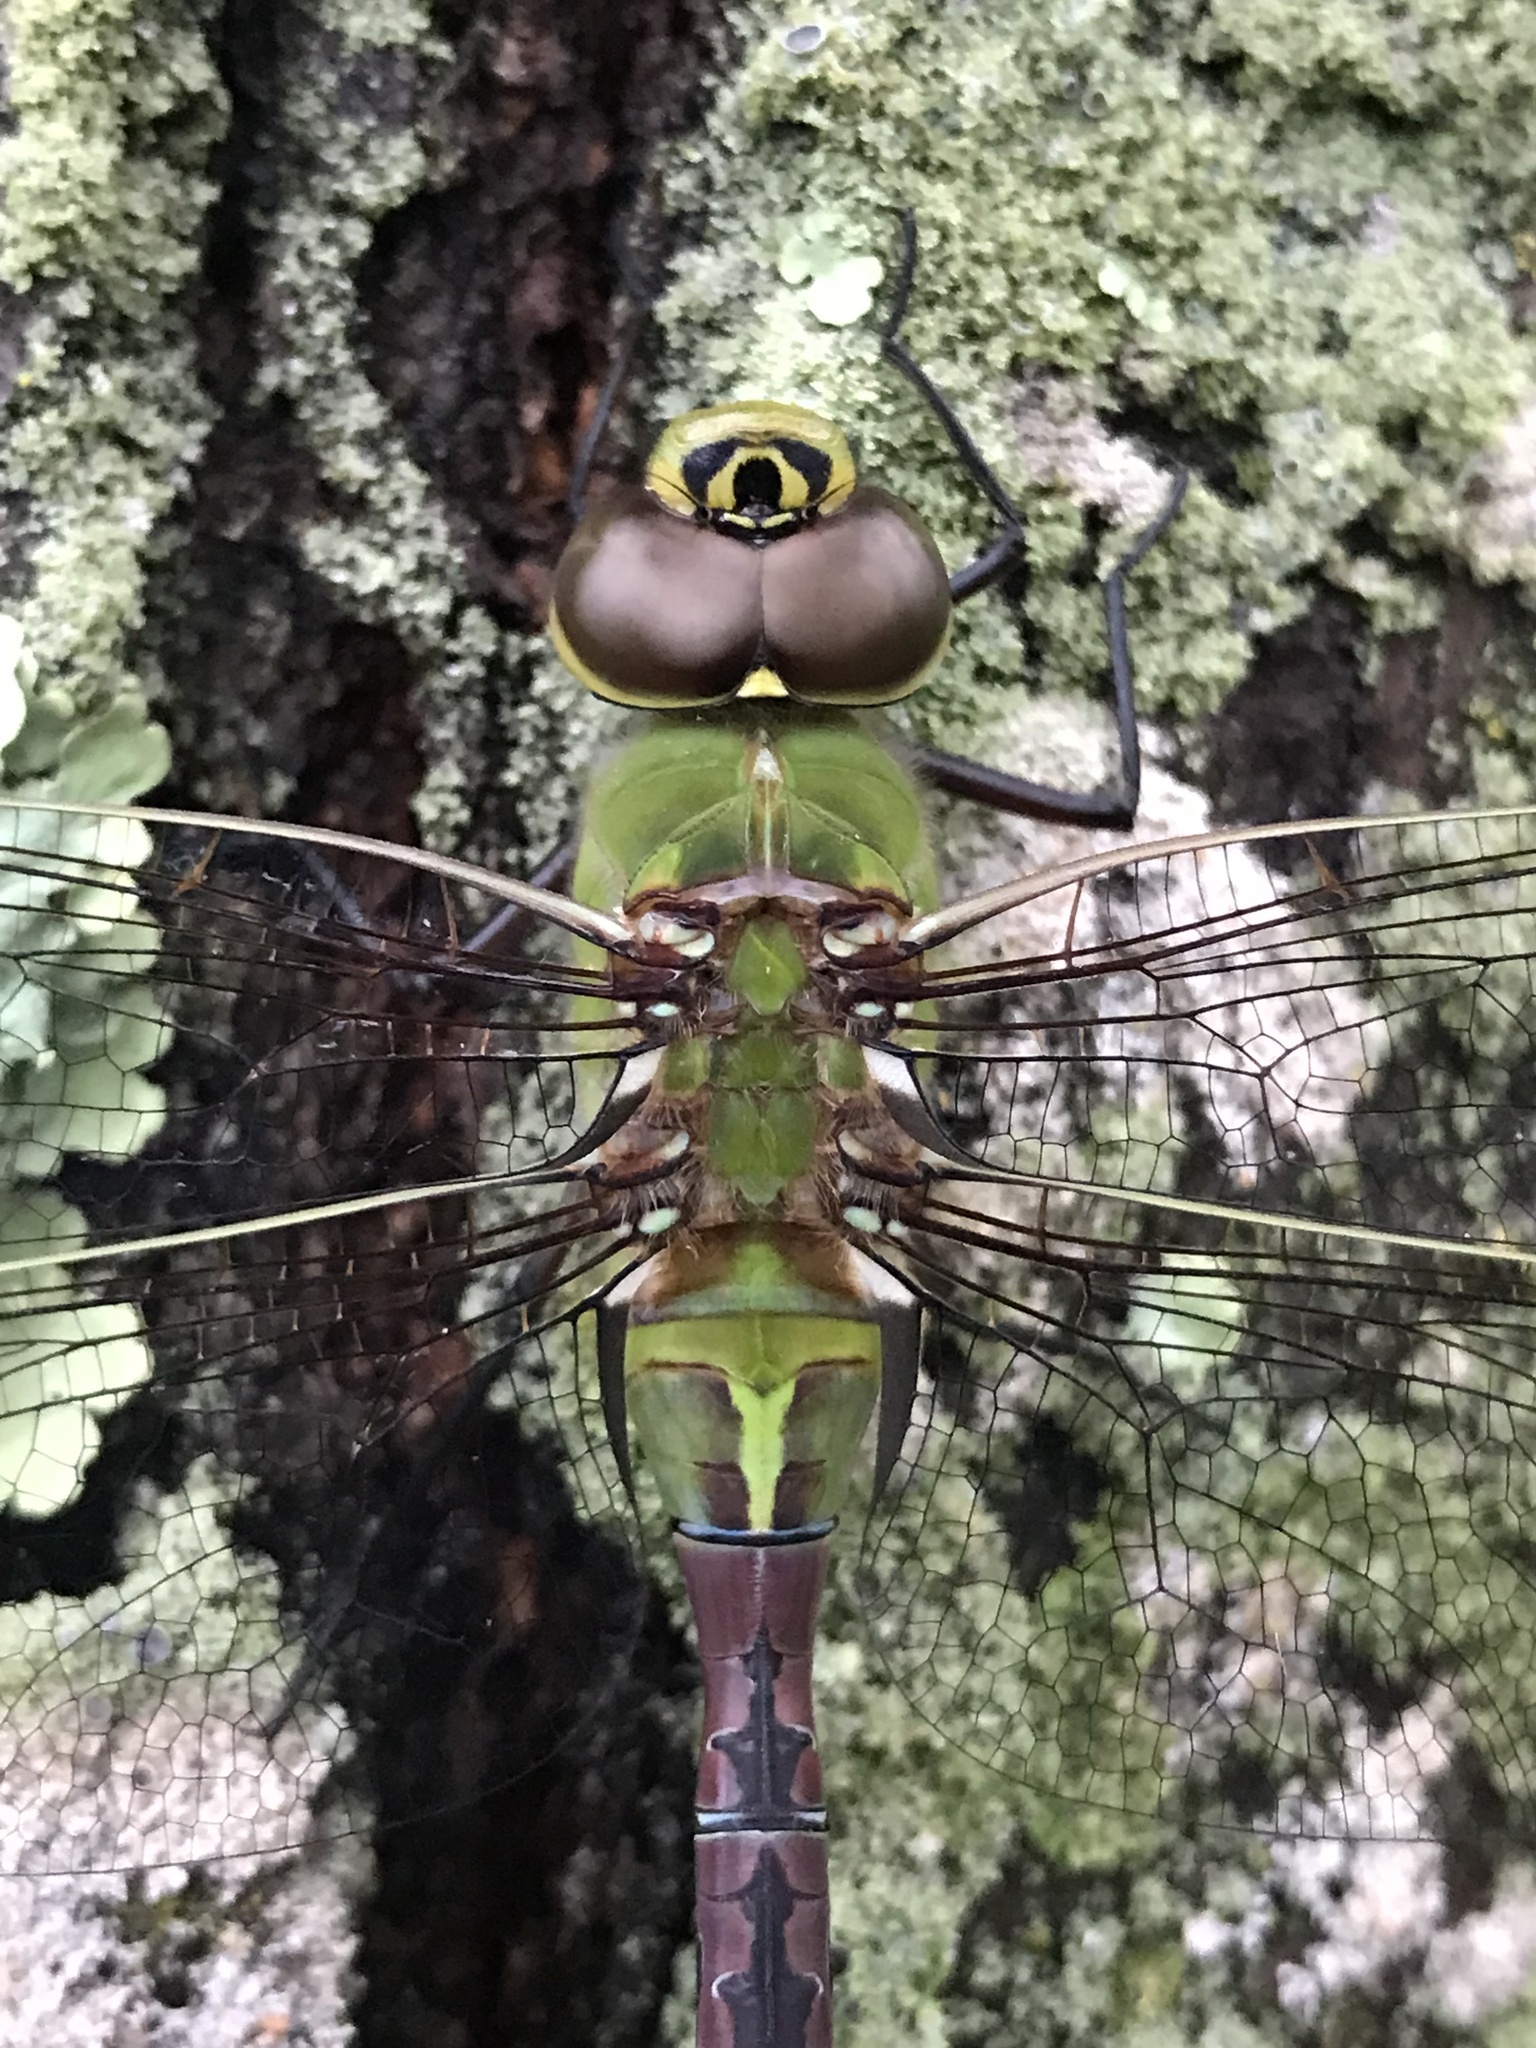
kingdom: Animalia
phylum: Arthropoda
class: Insecta
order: Odonata
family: Aeshnidae
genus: Anax
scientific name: Anax junius
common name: Common green darner
